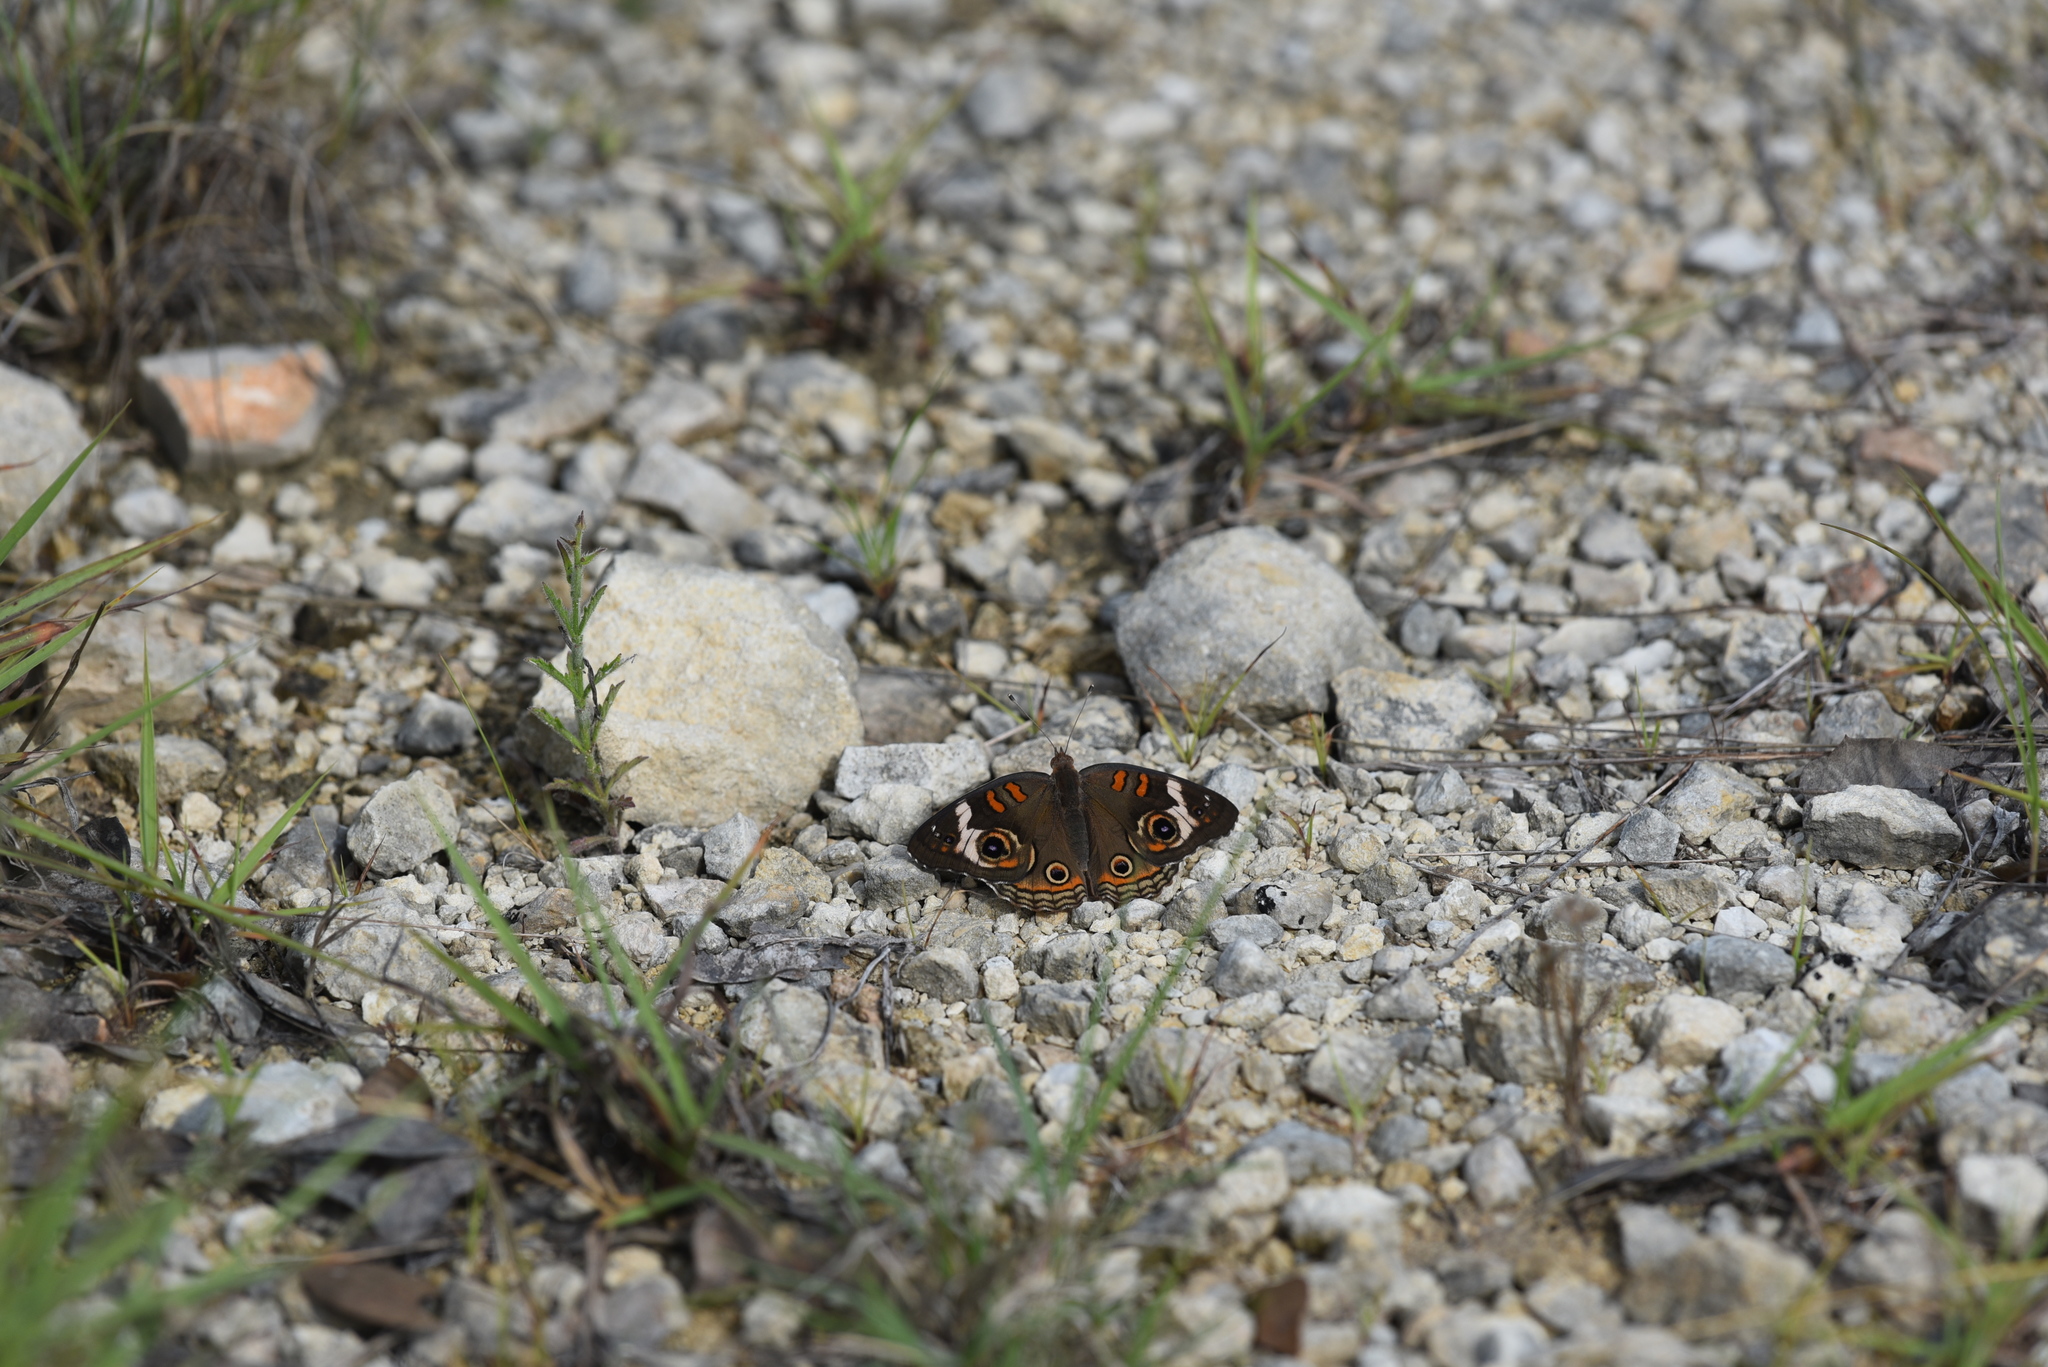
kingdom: Animalia
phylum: Arthropoda
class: Insecta
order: Lepidoptera
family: Nymphalidae
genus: Junonia
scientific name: Junonia coenia
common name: Common buckeye
